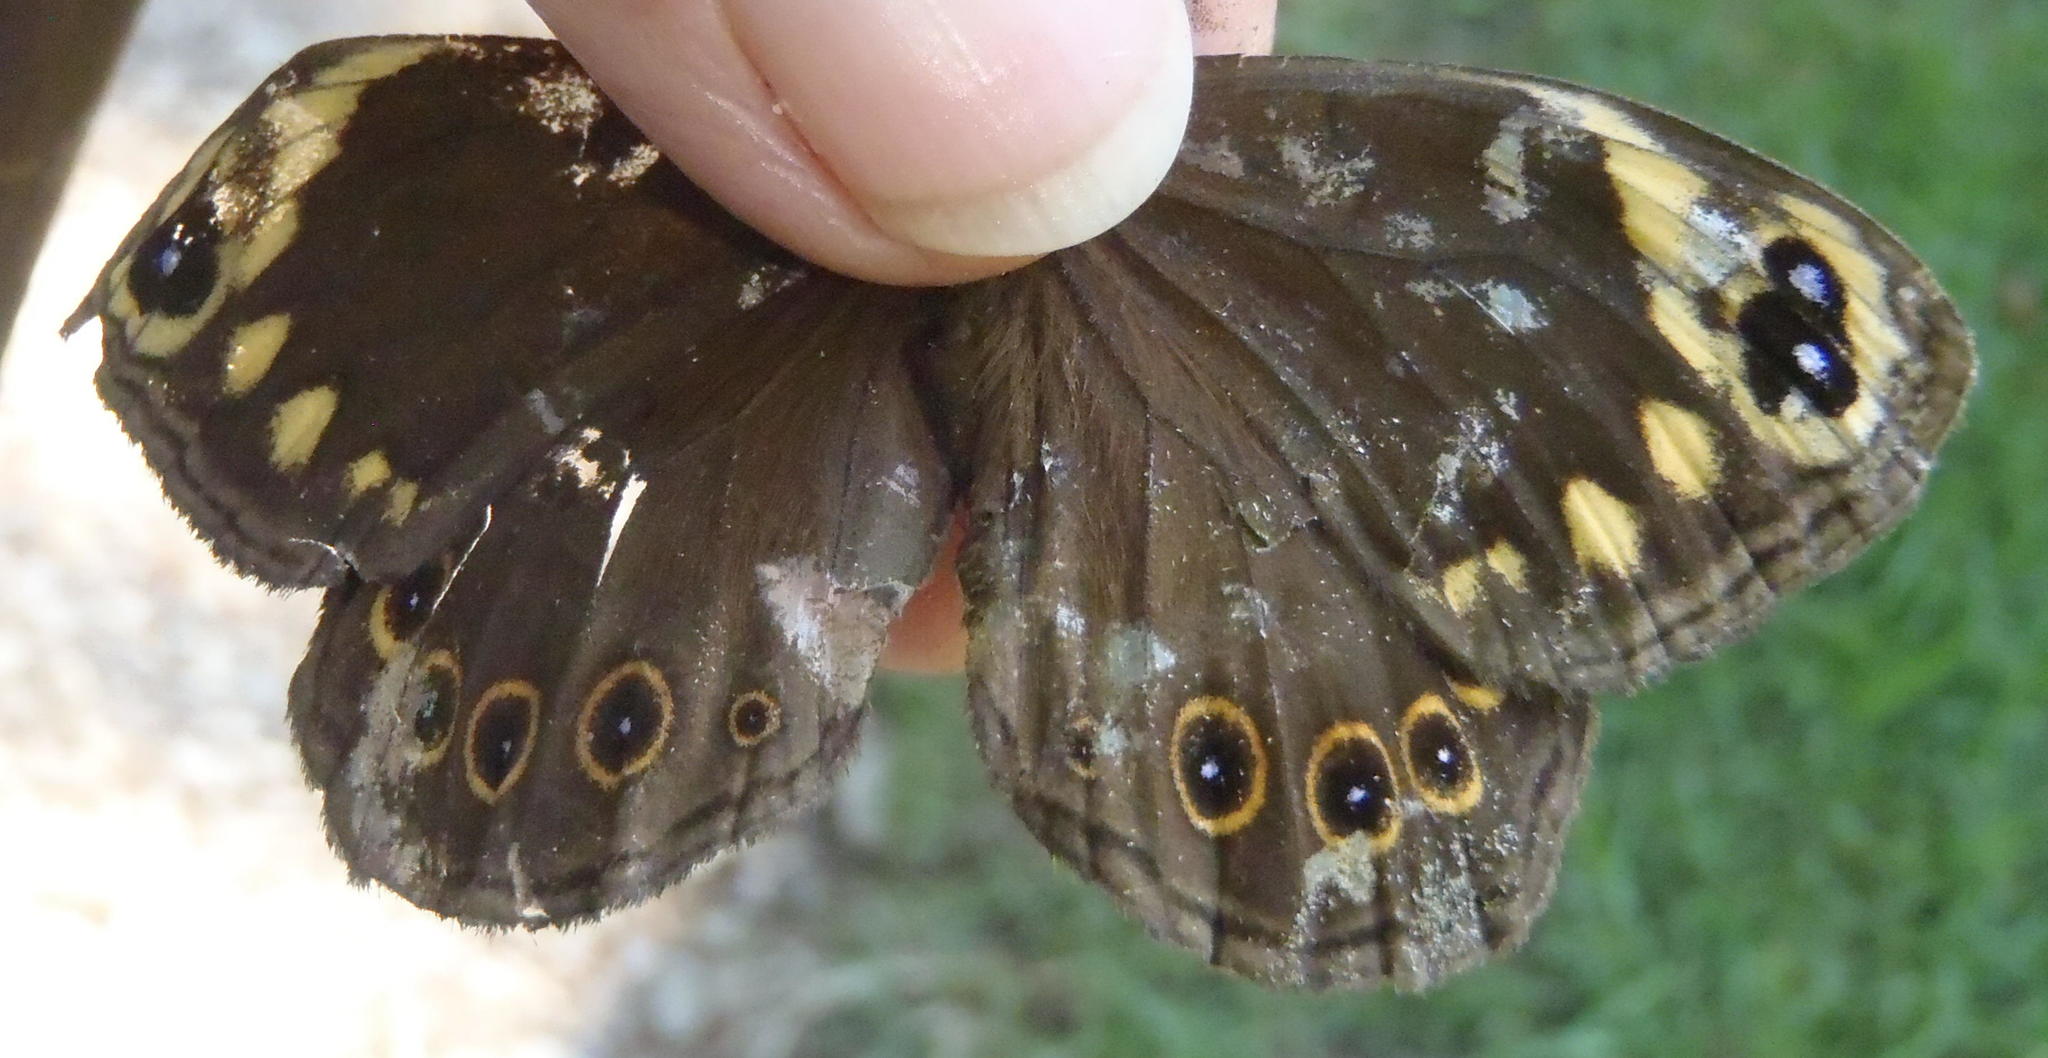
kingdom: Animalia
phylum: Arthropoda
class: Insecta
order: Lepidoptera
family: Nymphalidae
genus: Dira
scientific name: Dira clytus
